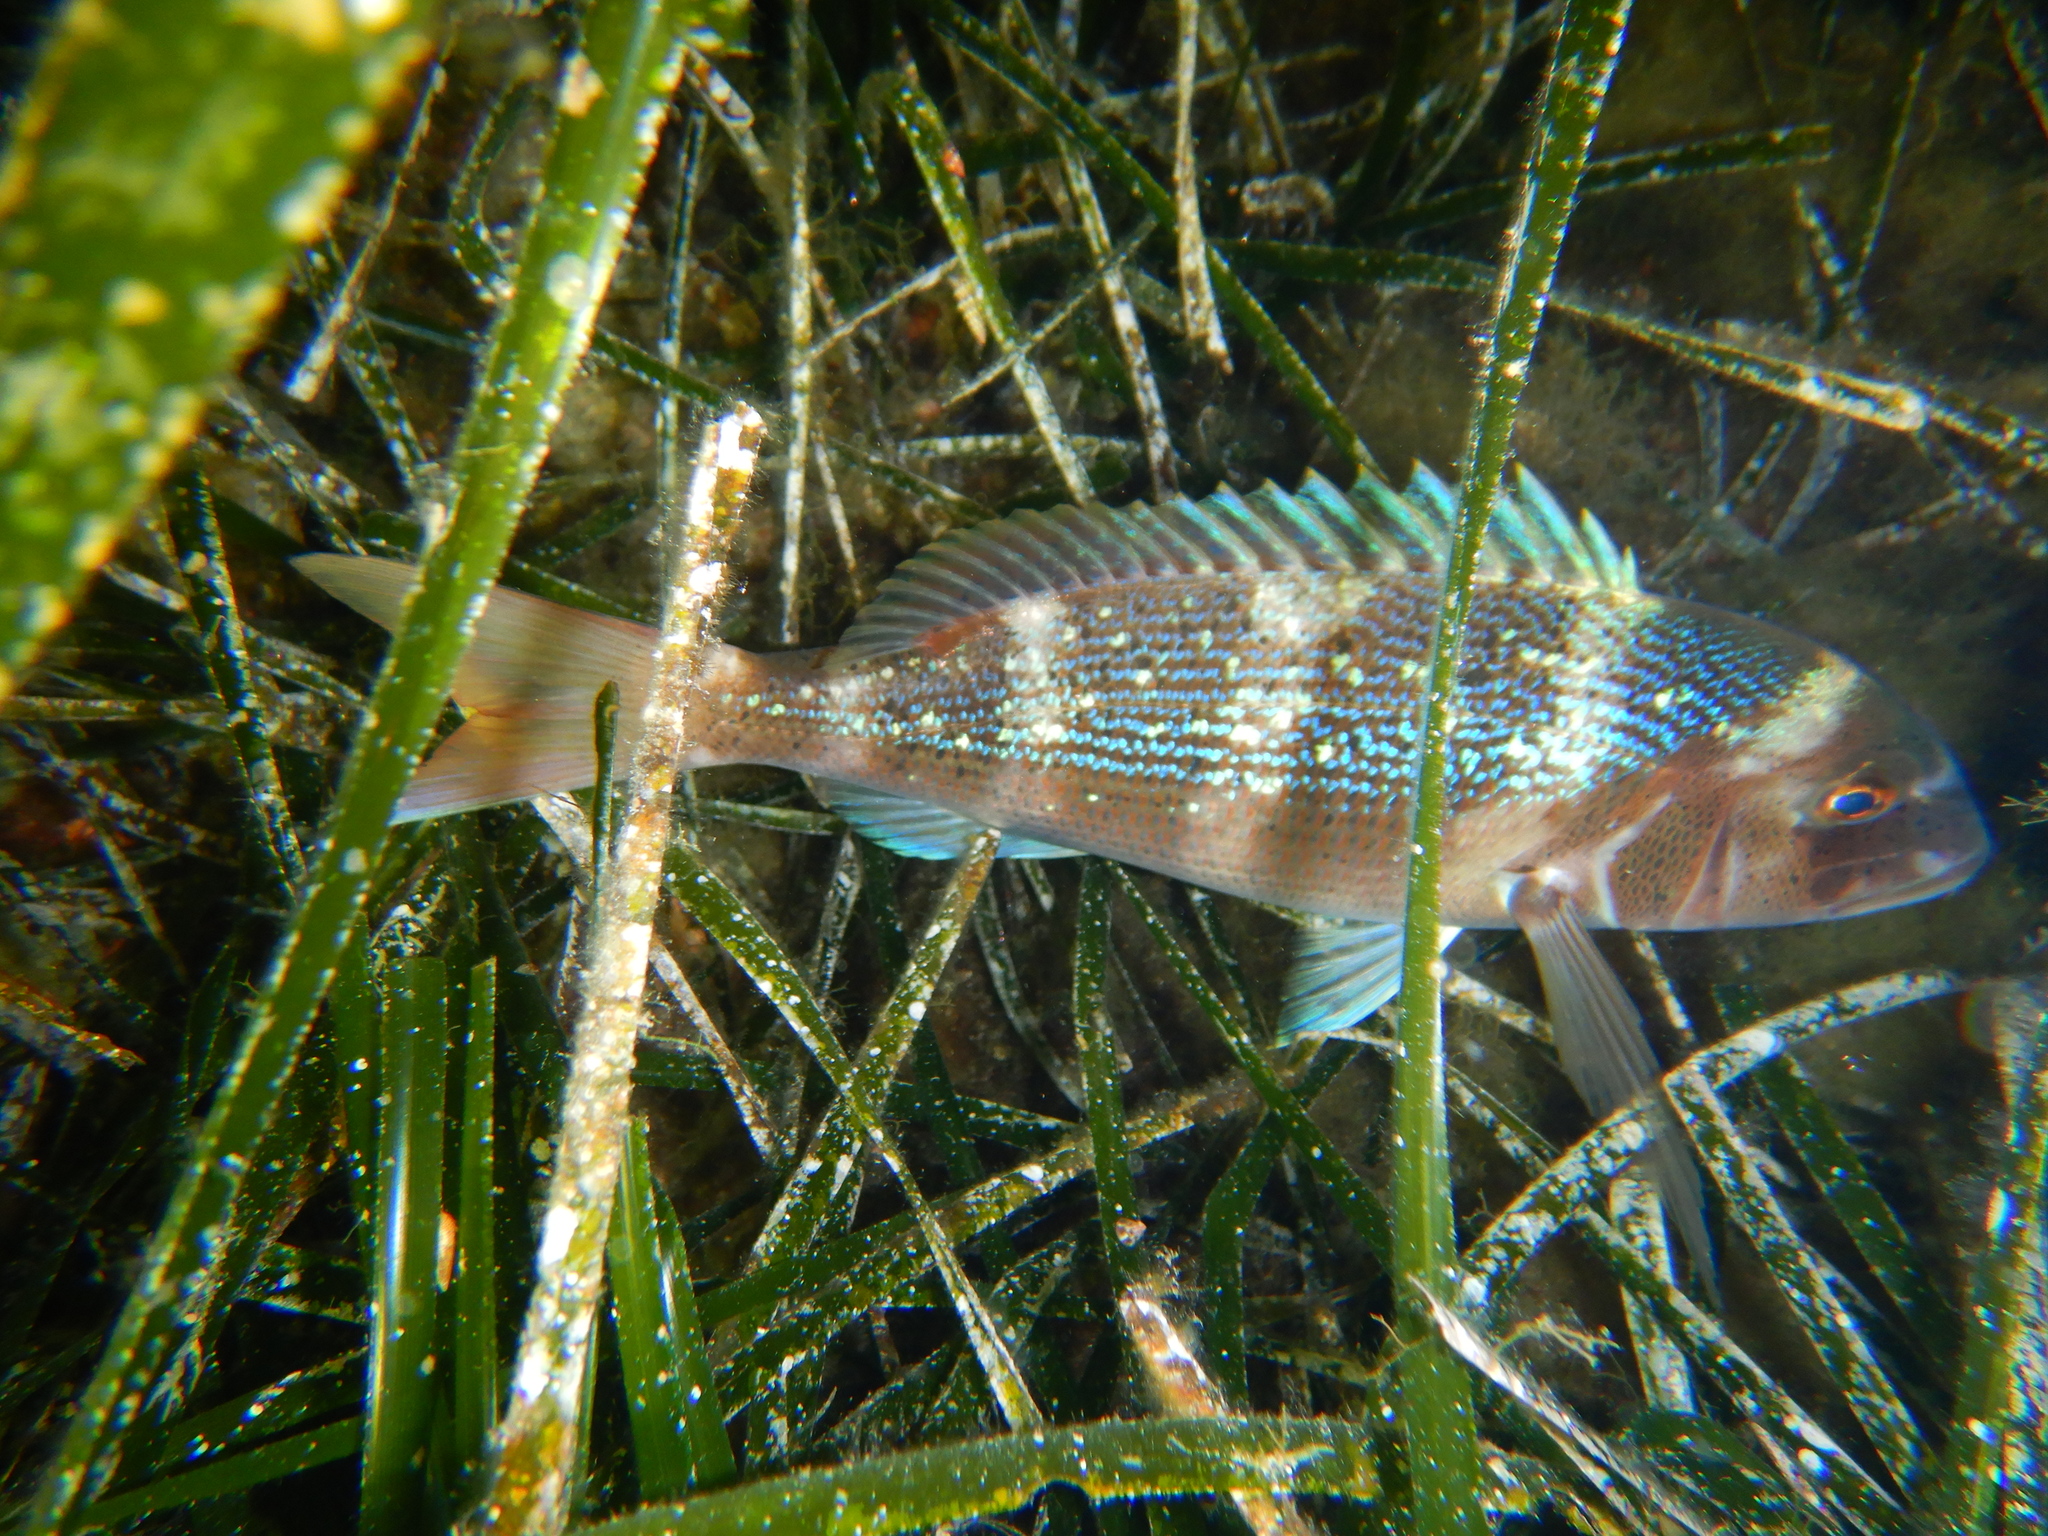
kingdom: Animalia
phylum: Chordata
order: Perciformes
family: Sparidae
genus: Dentex
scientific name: Dentex dentex
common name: Dentex
